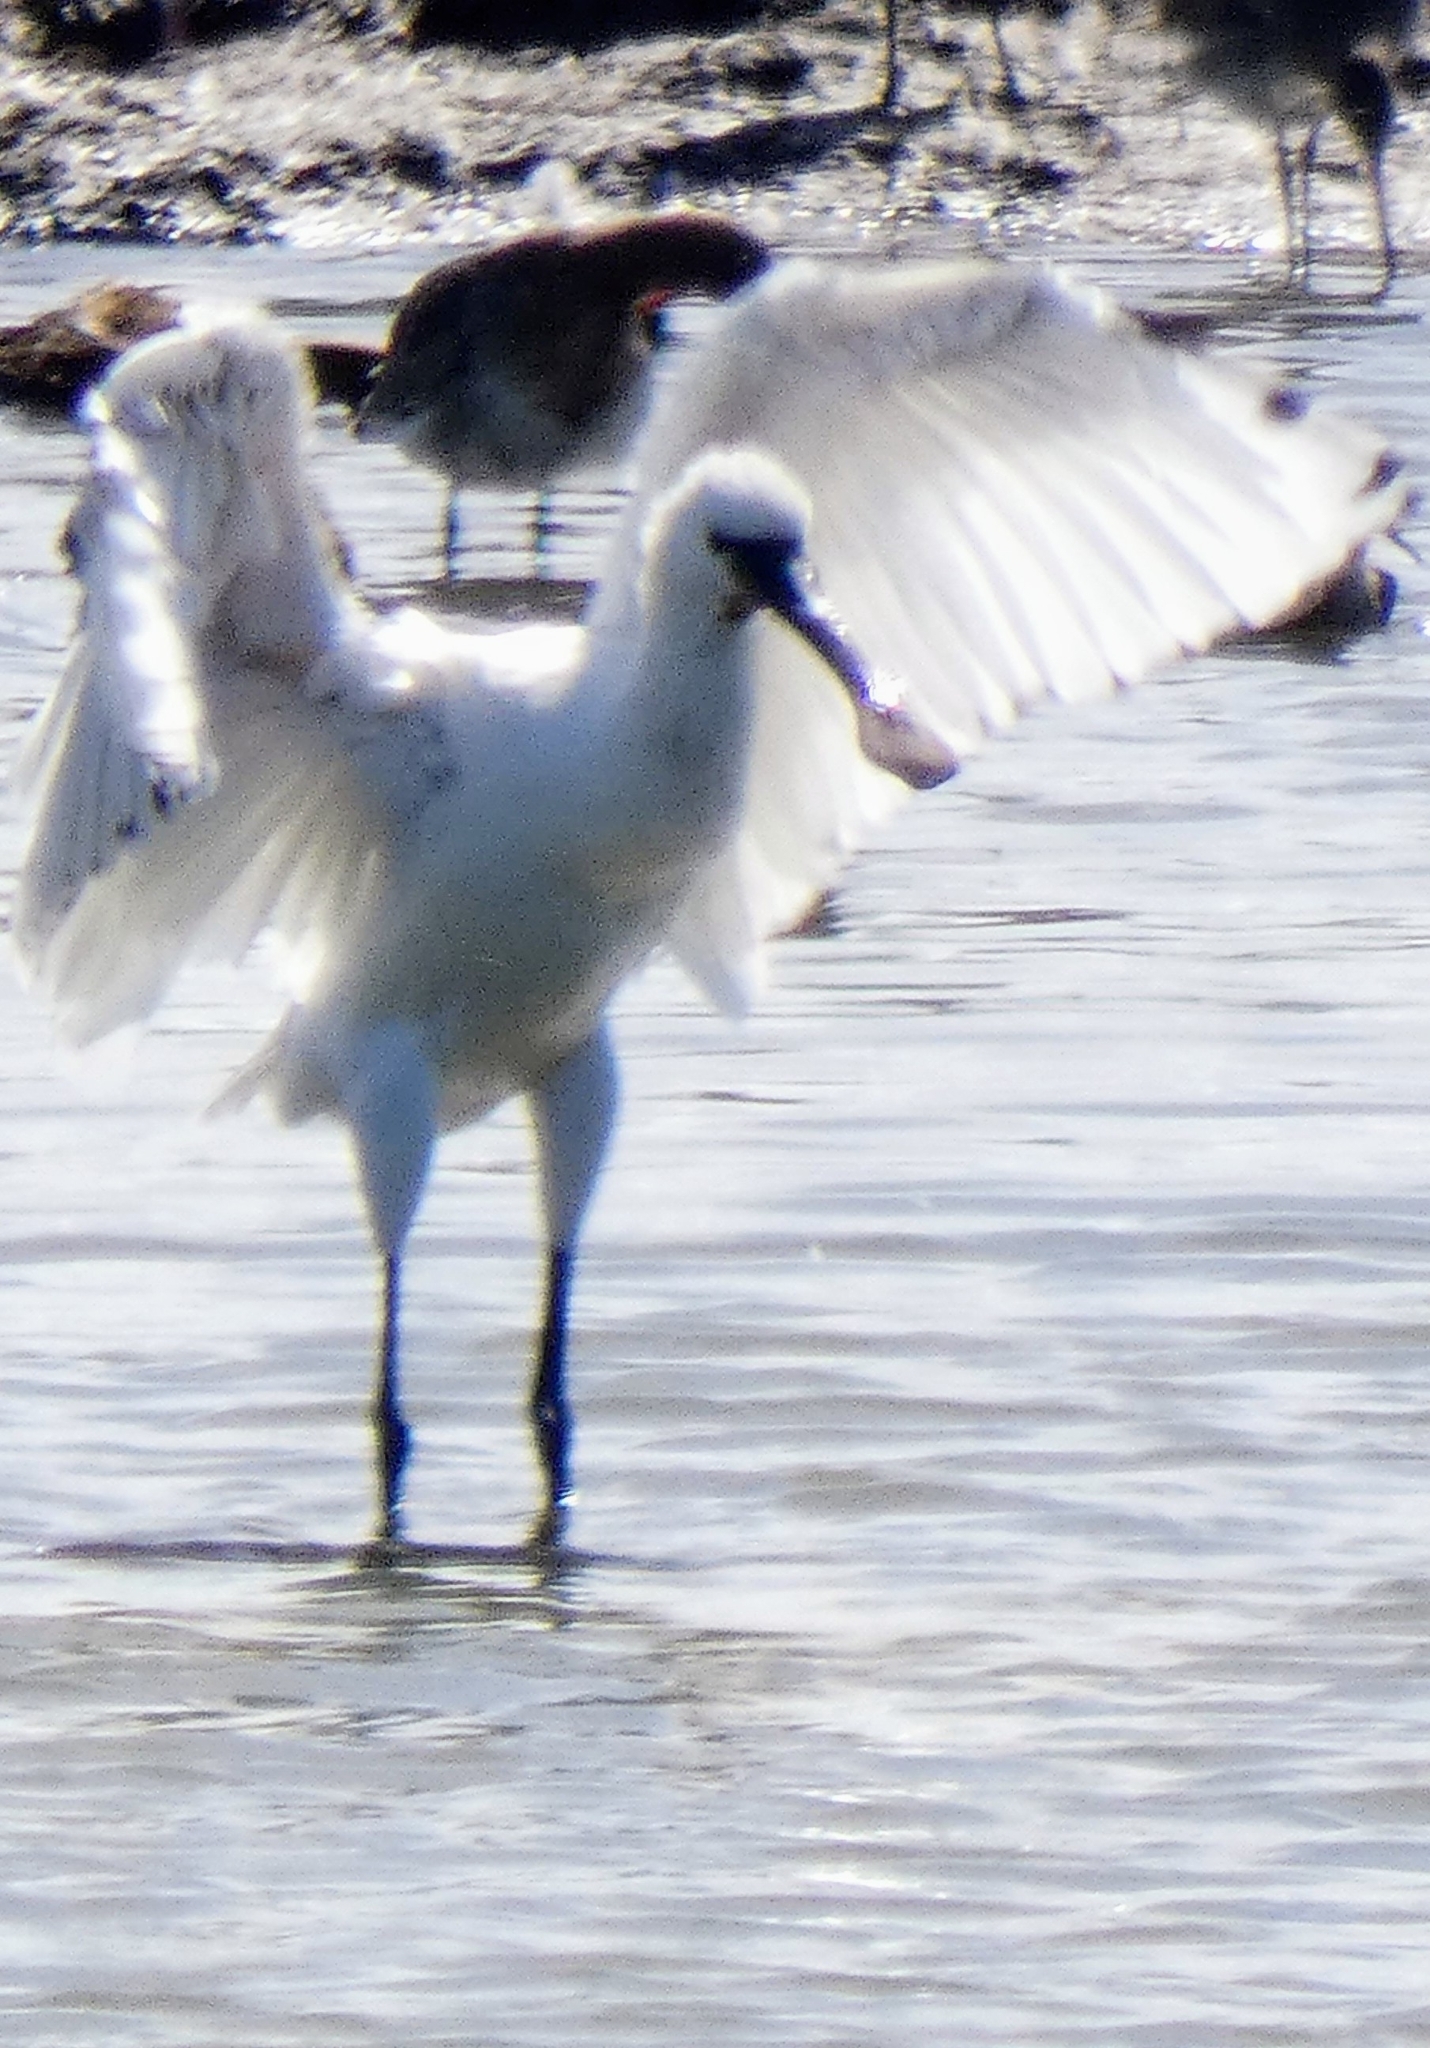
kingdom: Animalia
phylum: Chordata
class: Aves
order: Pelecaniformes
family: Threskiornithidae
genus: Platalea
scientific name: Platalea leucorodia
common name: Eurasian spoonbill
